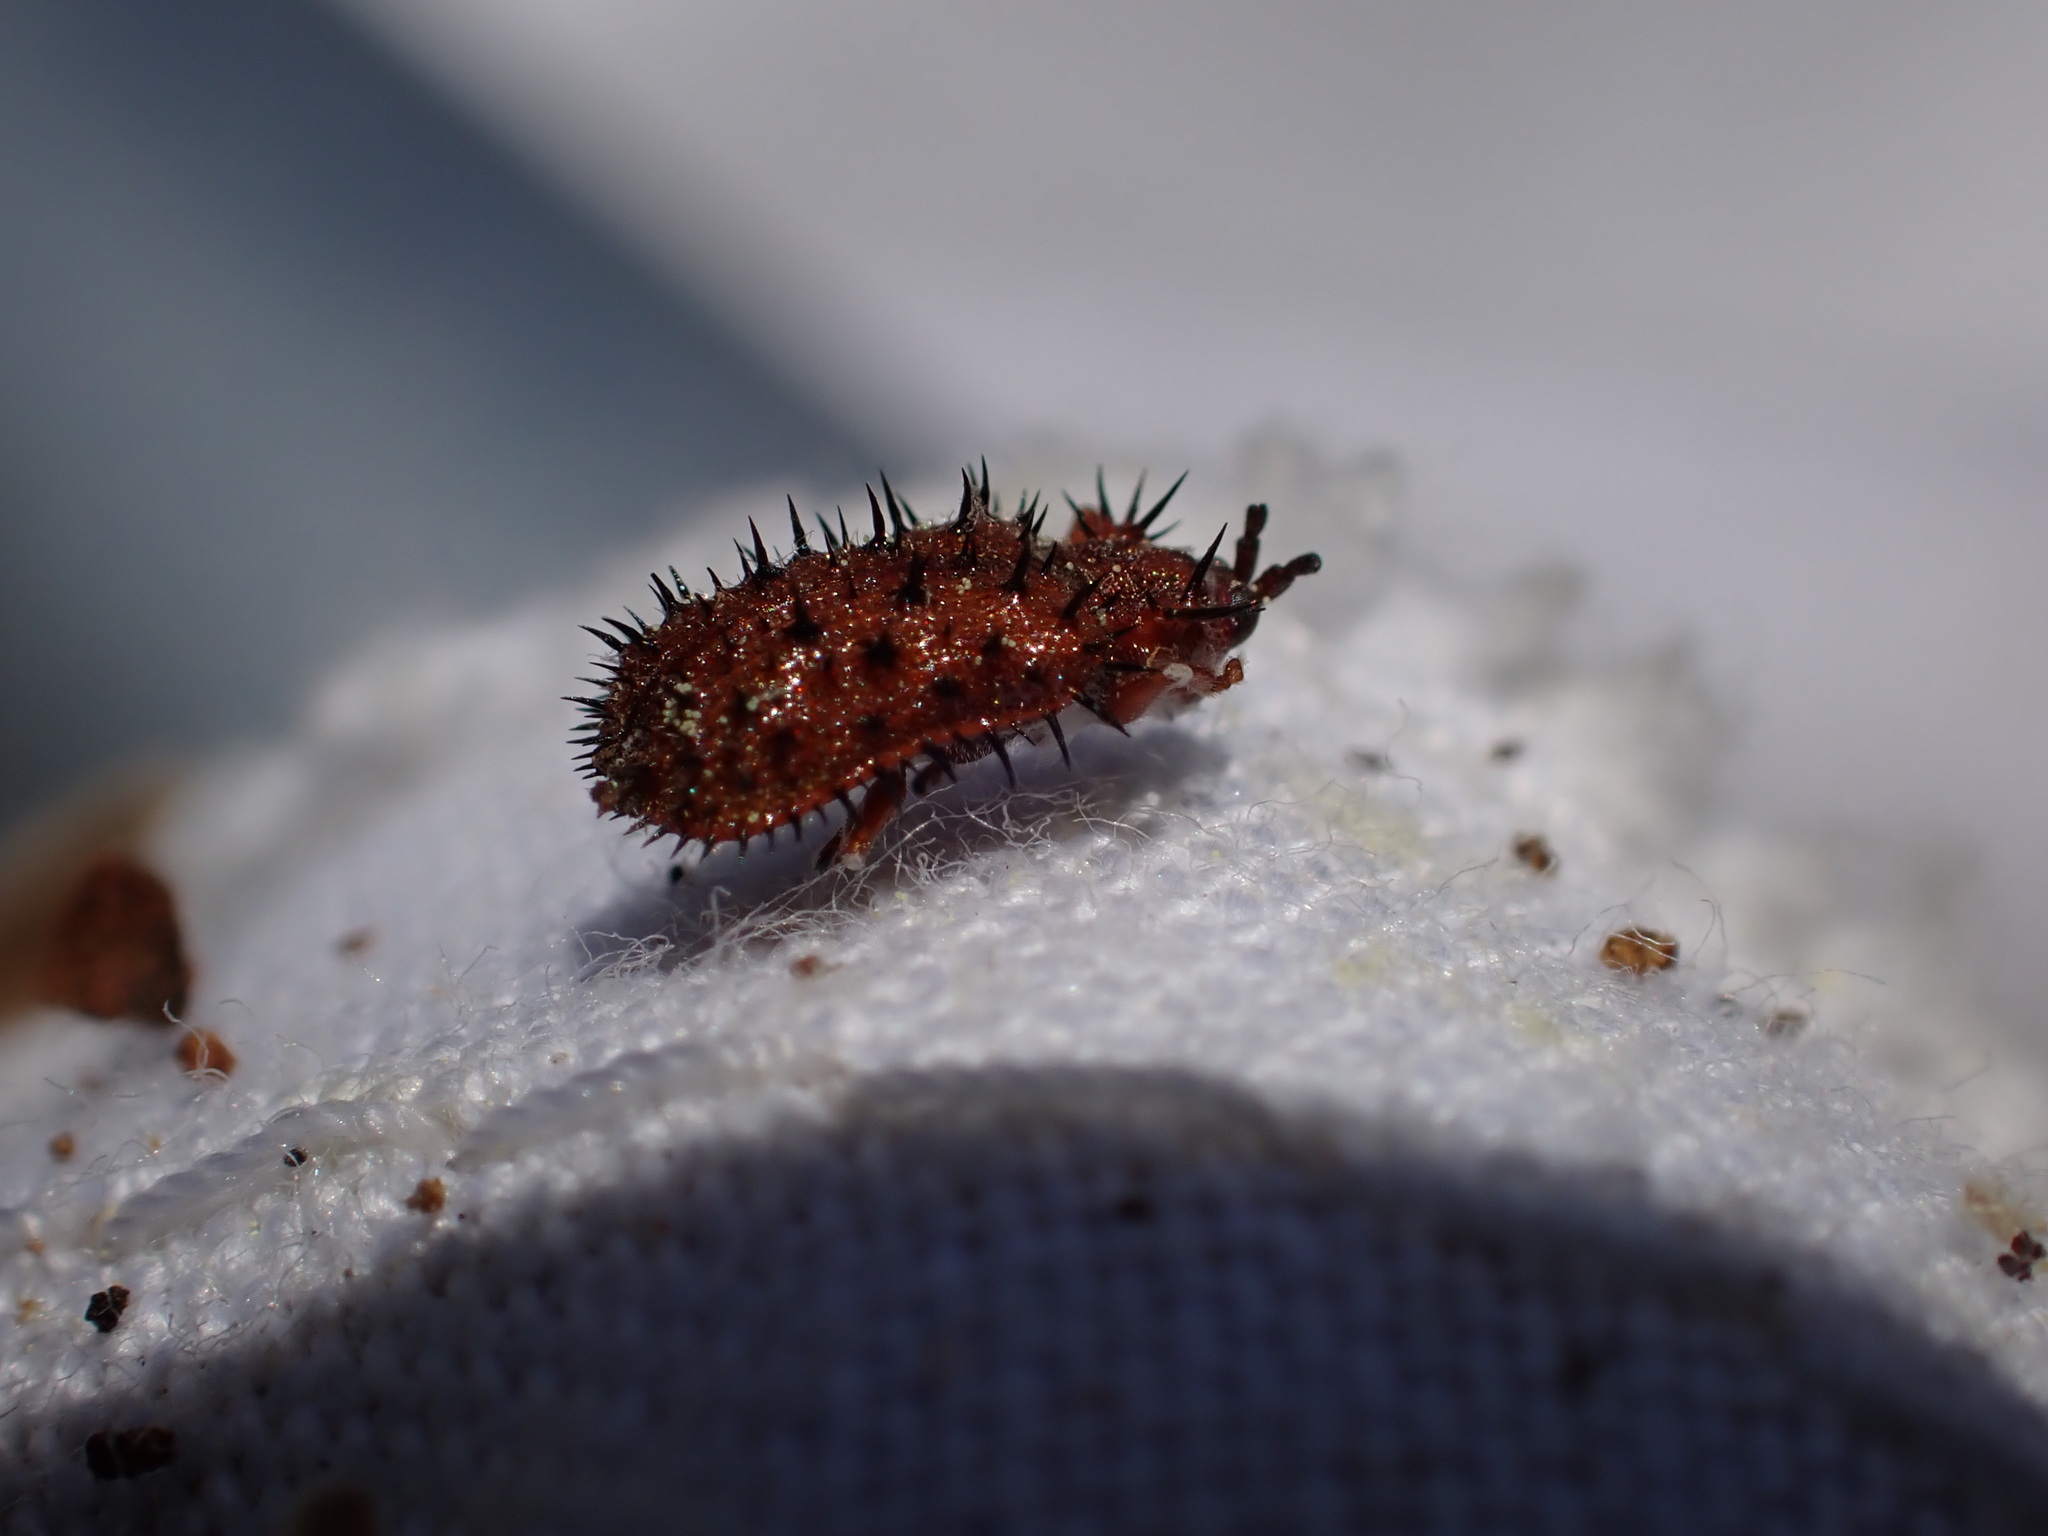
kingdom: Animalia
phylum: Arthropoda
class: Insecta
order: Coleoptera
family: Chrysomelidae
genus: Dicladispa
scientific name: Dicladispa testacea
